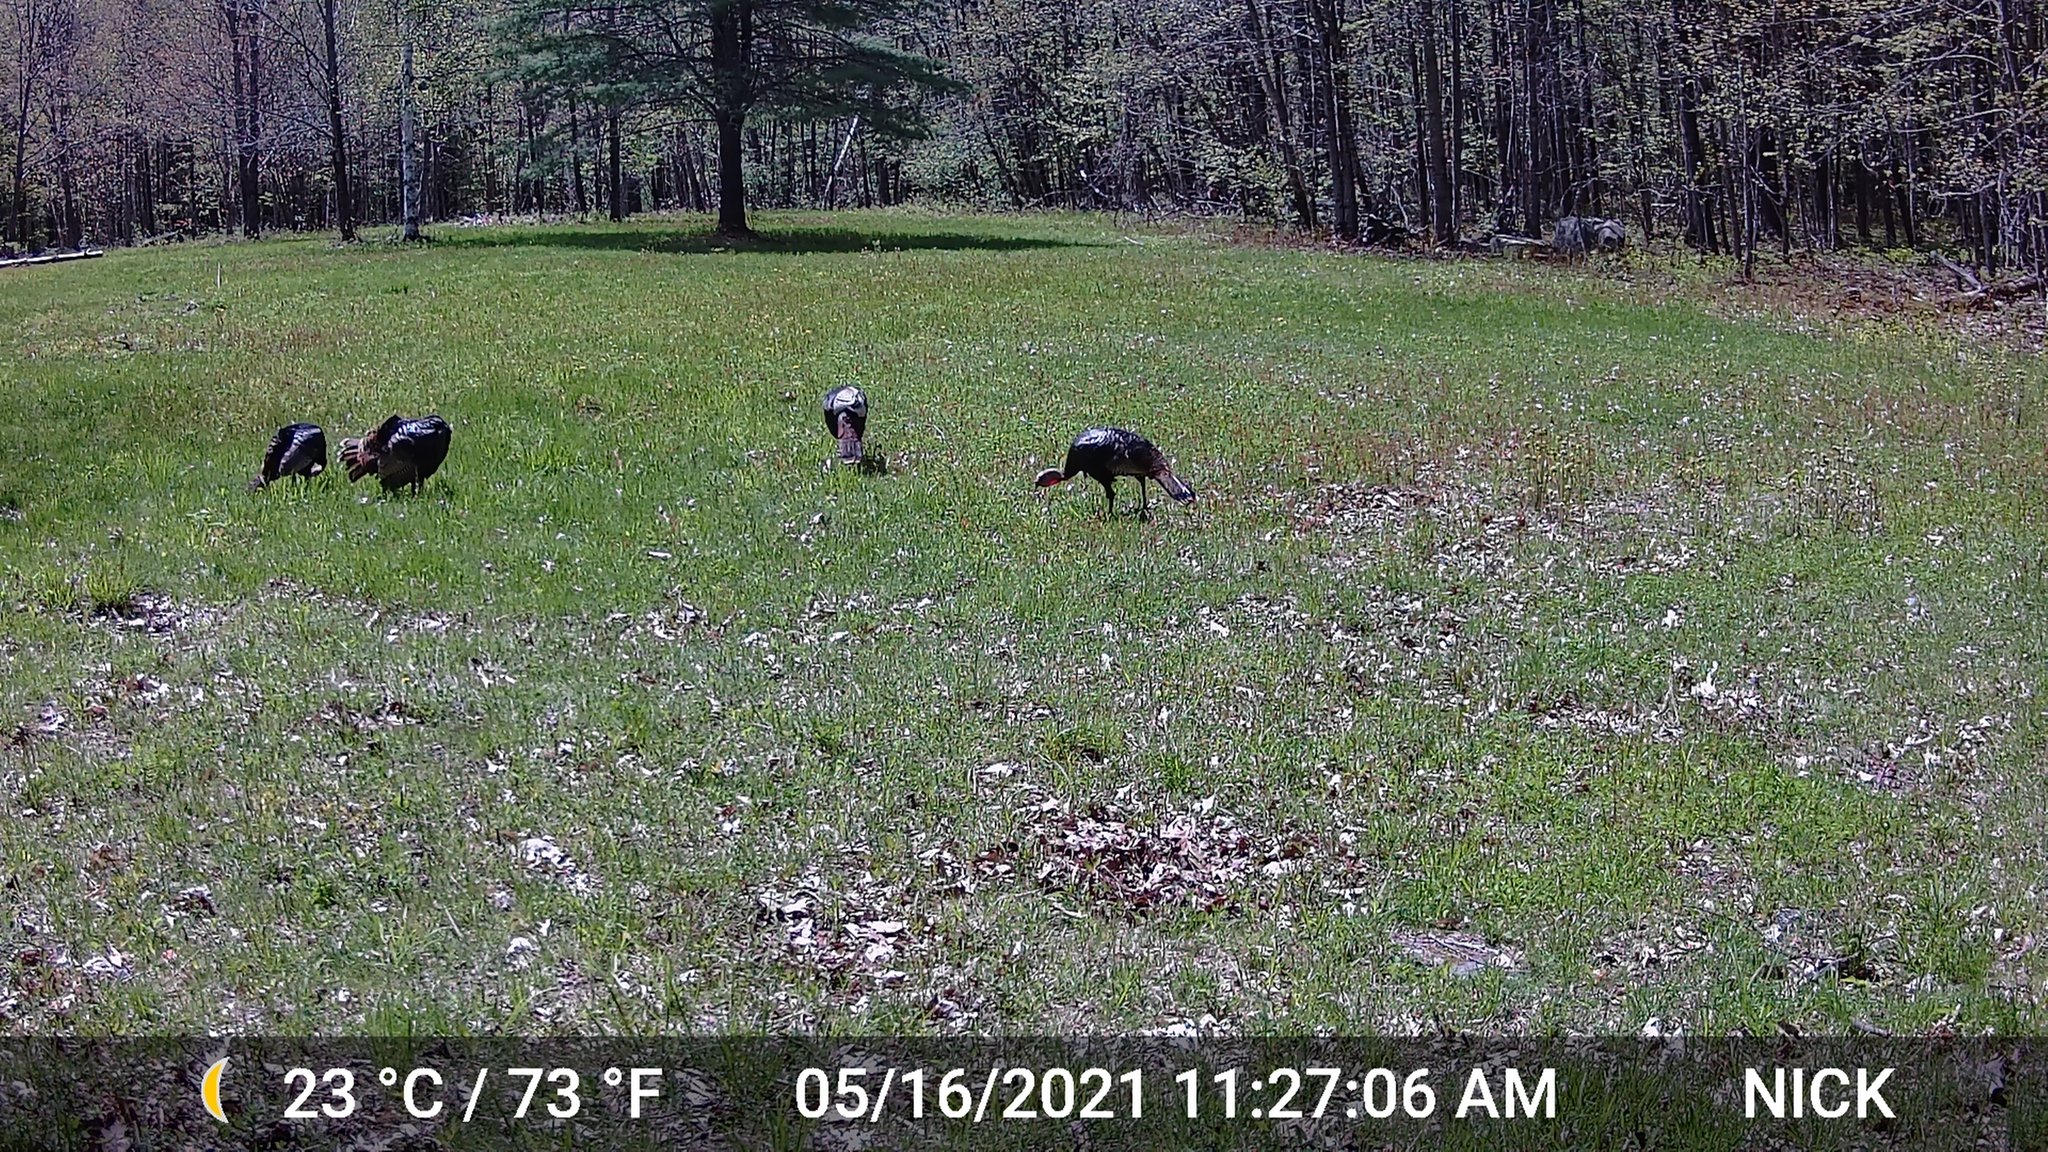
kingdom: Animalia
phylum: Chordata
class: Aves
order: Galliformes
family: Phasianidae
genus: Meleagris
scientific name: Meleagris gallopavo
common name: Wild turkey
